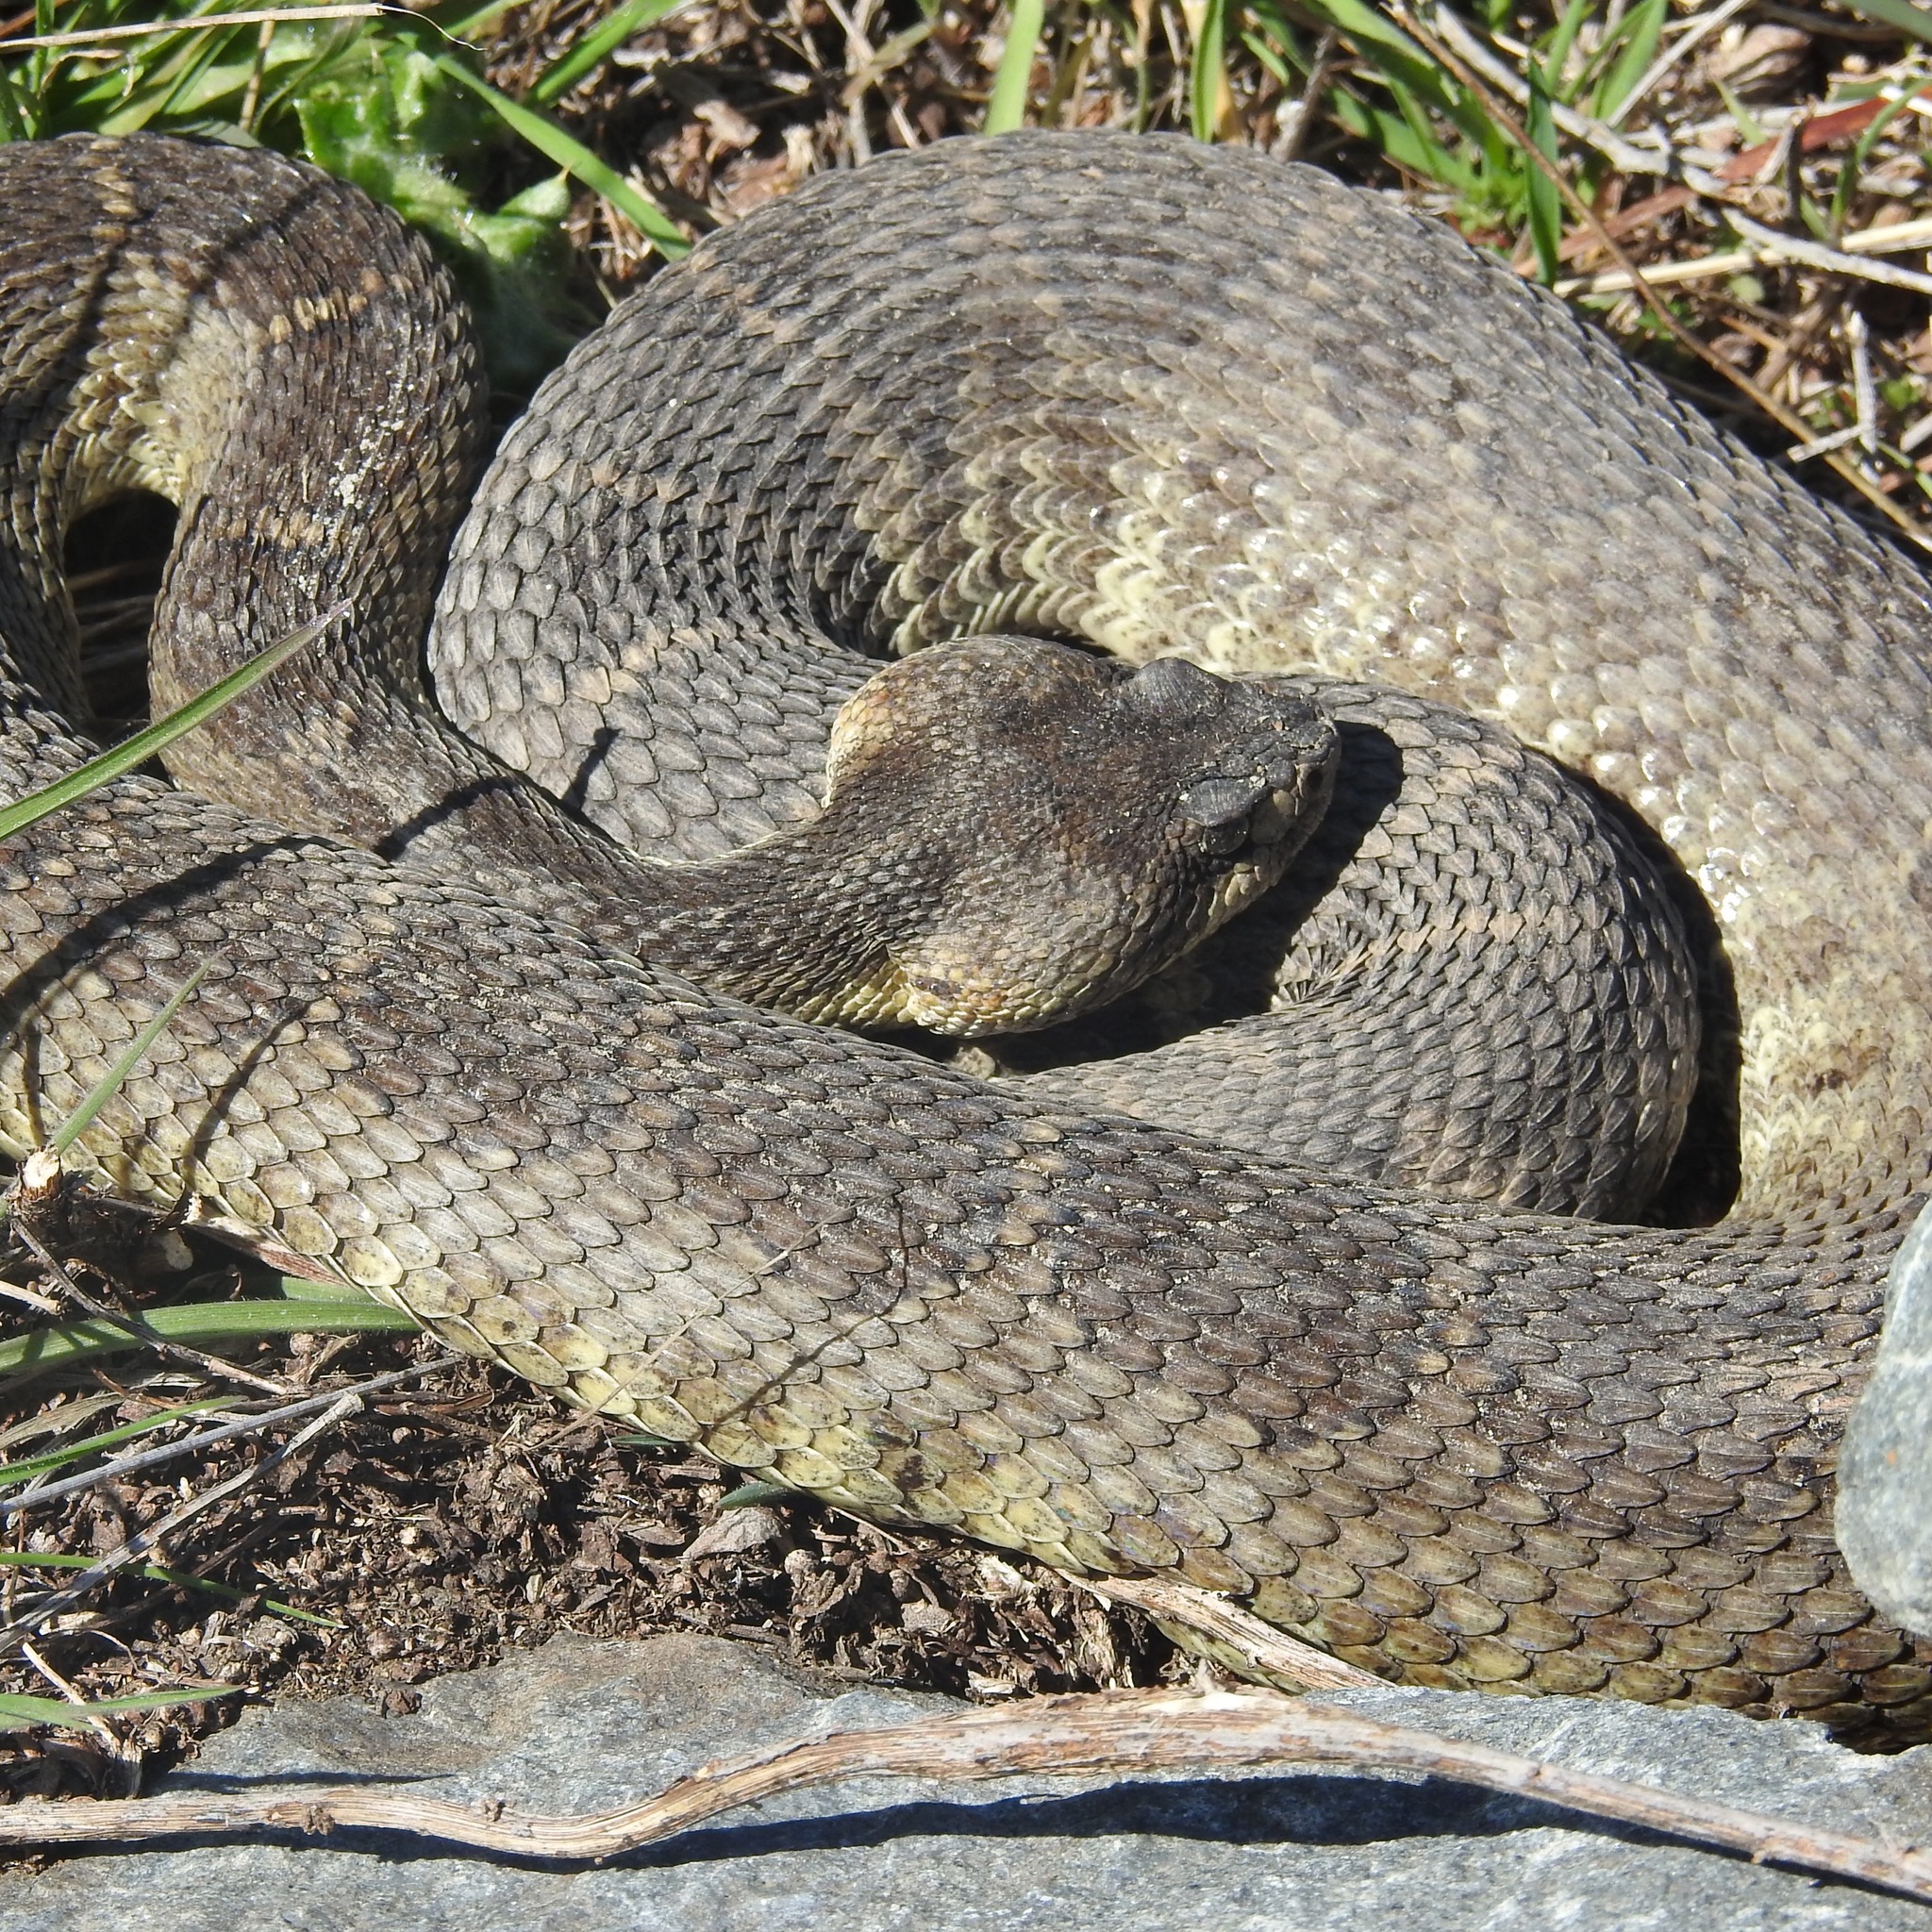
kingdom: Animalia
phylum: Chordata
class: Squamata
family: Viperidae
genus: Crotalus
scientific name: Crotalus oreganus
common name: Abyssus
